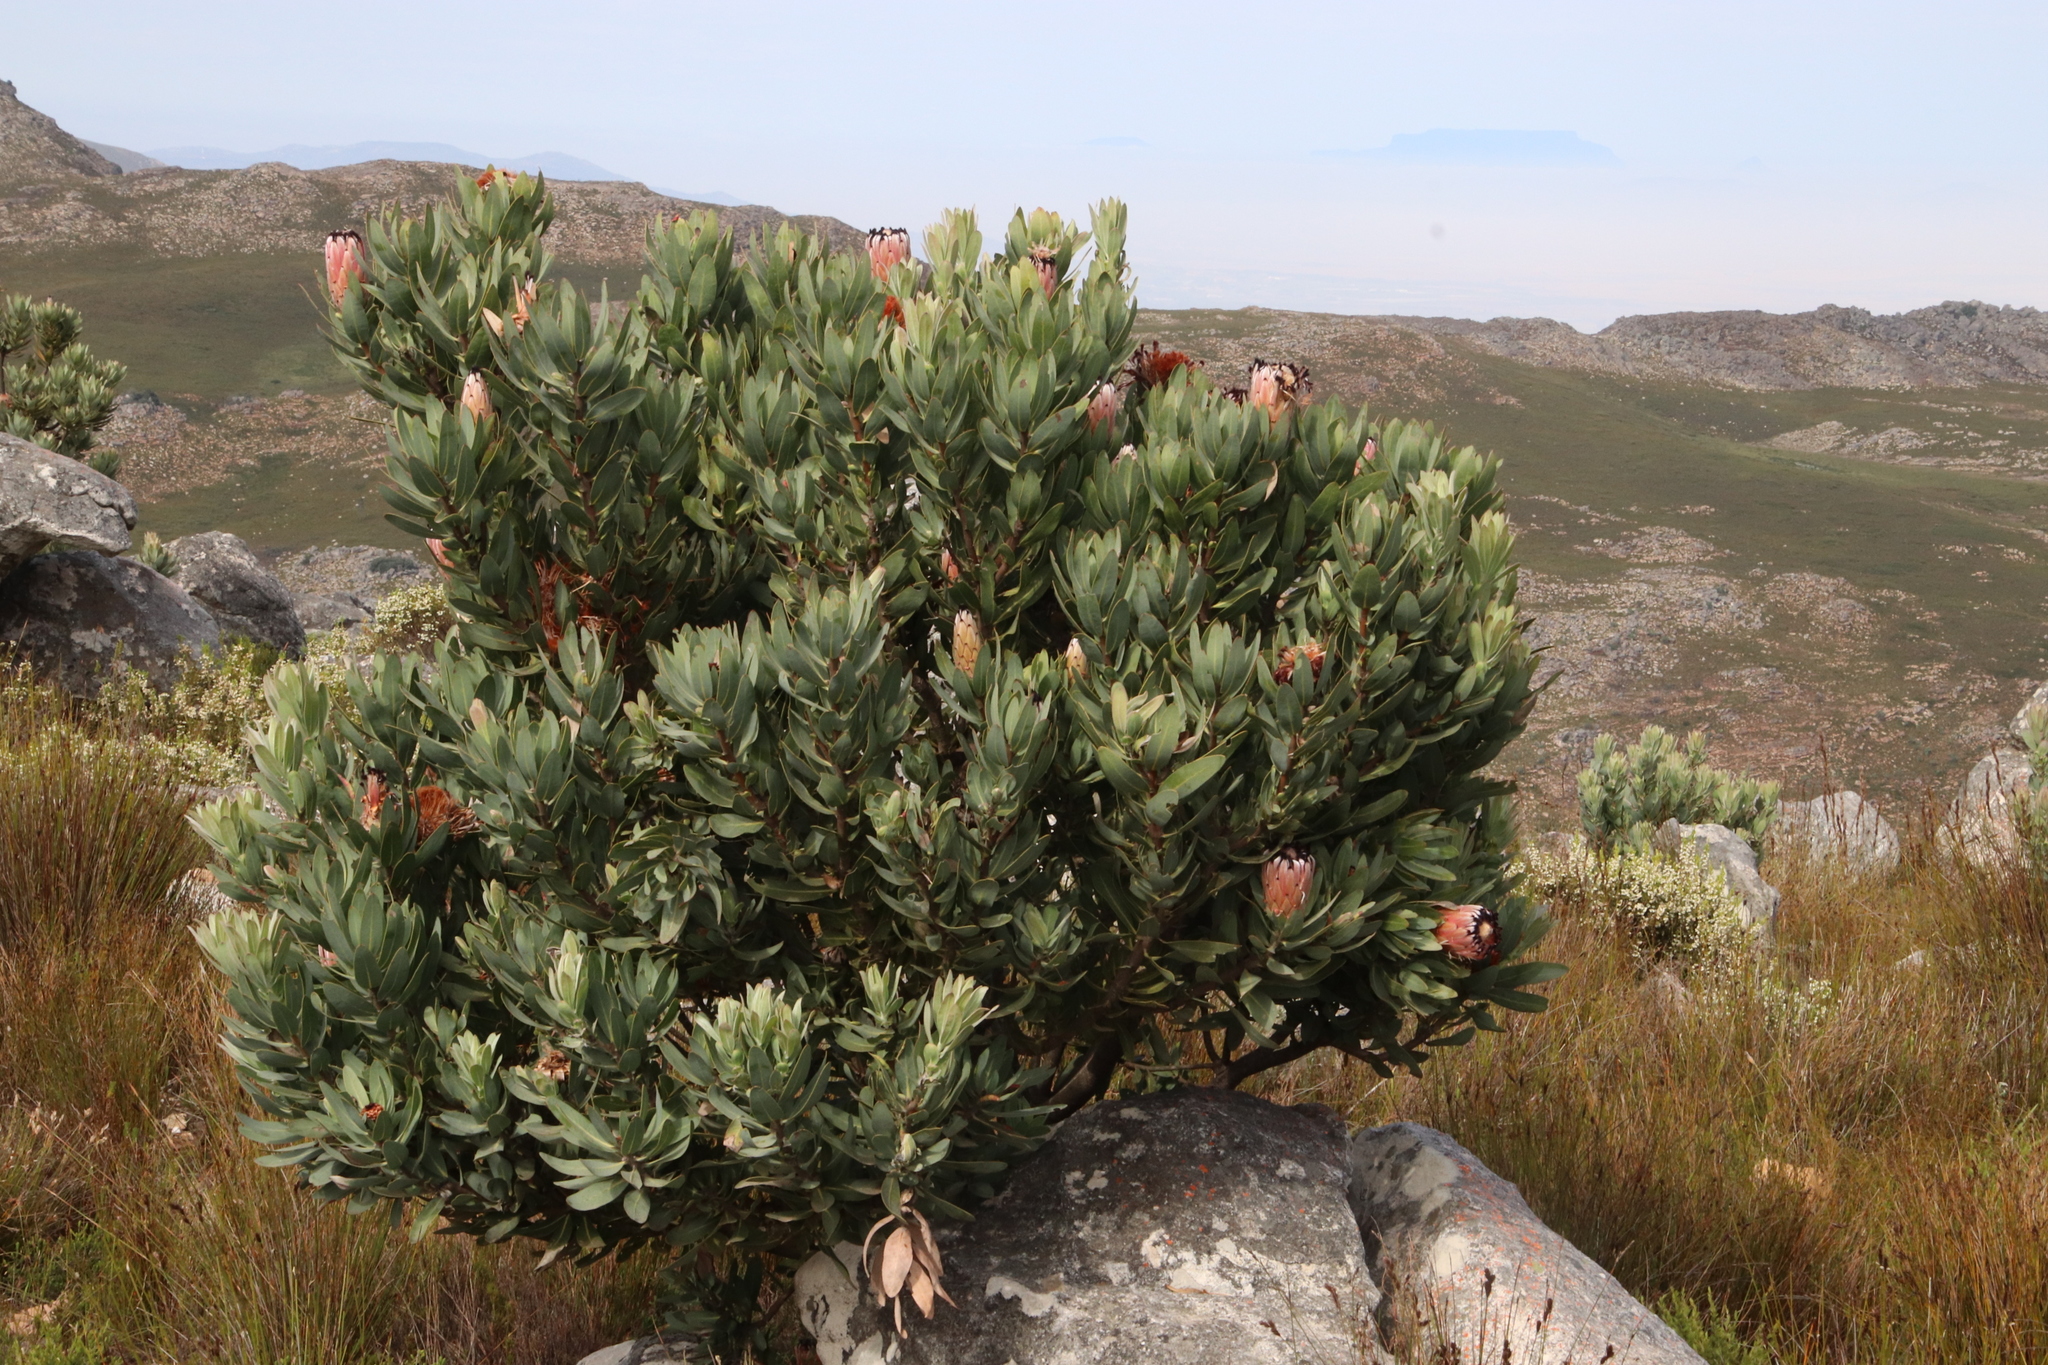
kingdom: Plantae
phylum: Tracheophyta
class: Magnoliopsida
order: Proteales
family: Proteaceae
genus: Protea
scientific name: Protea laurifolia
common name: Grey-leaf sugarbsh
